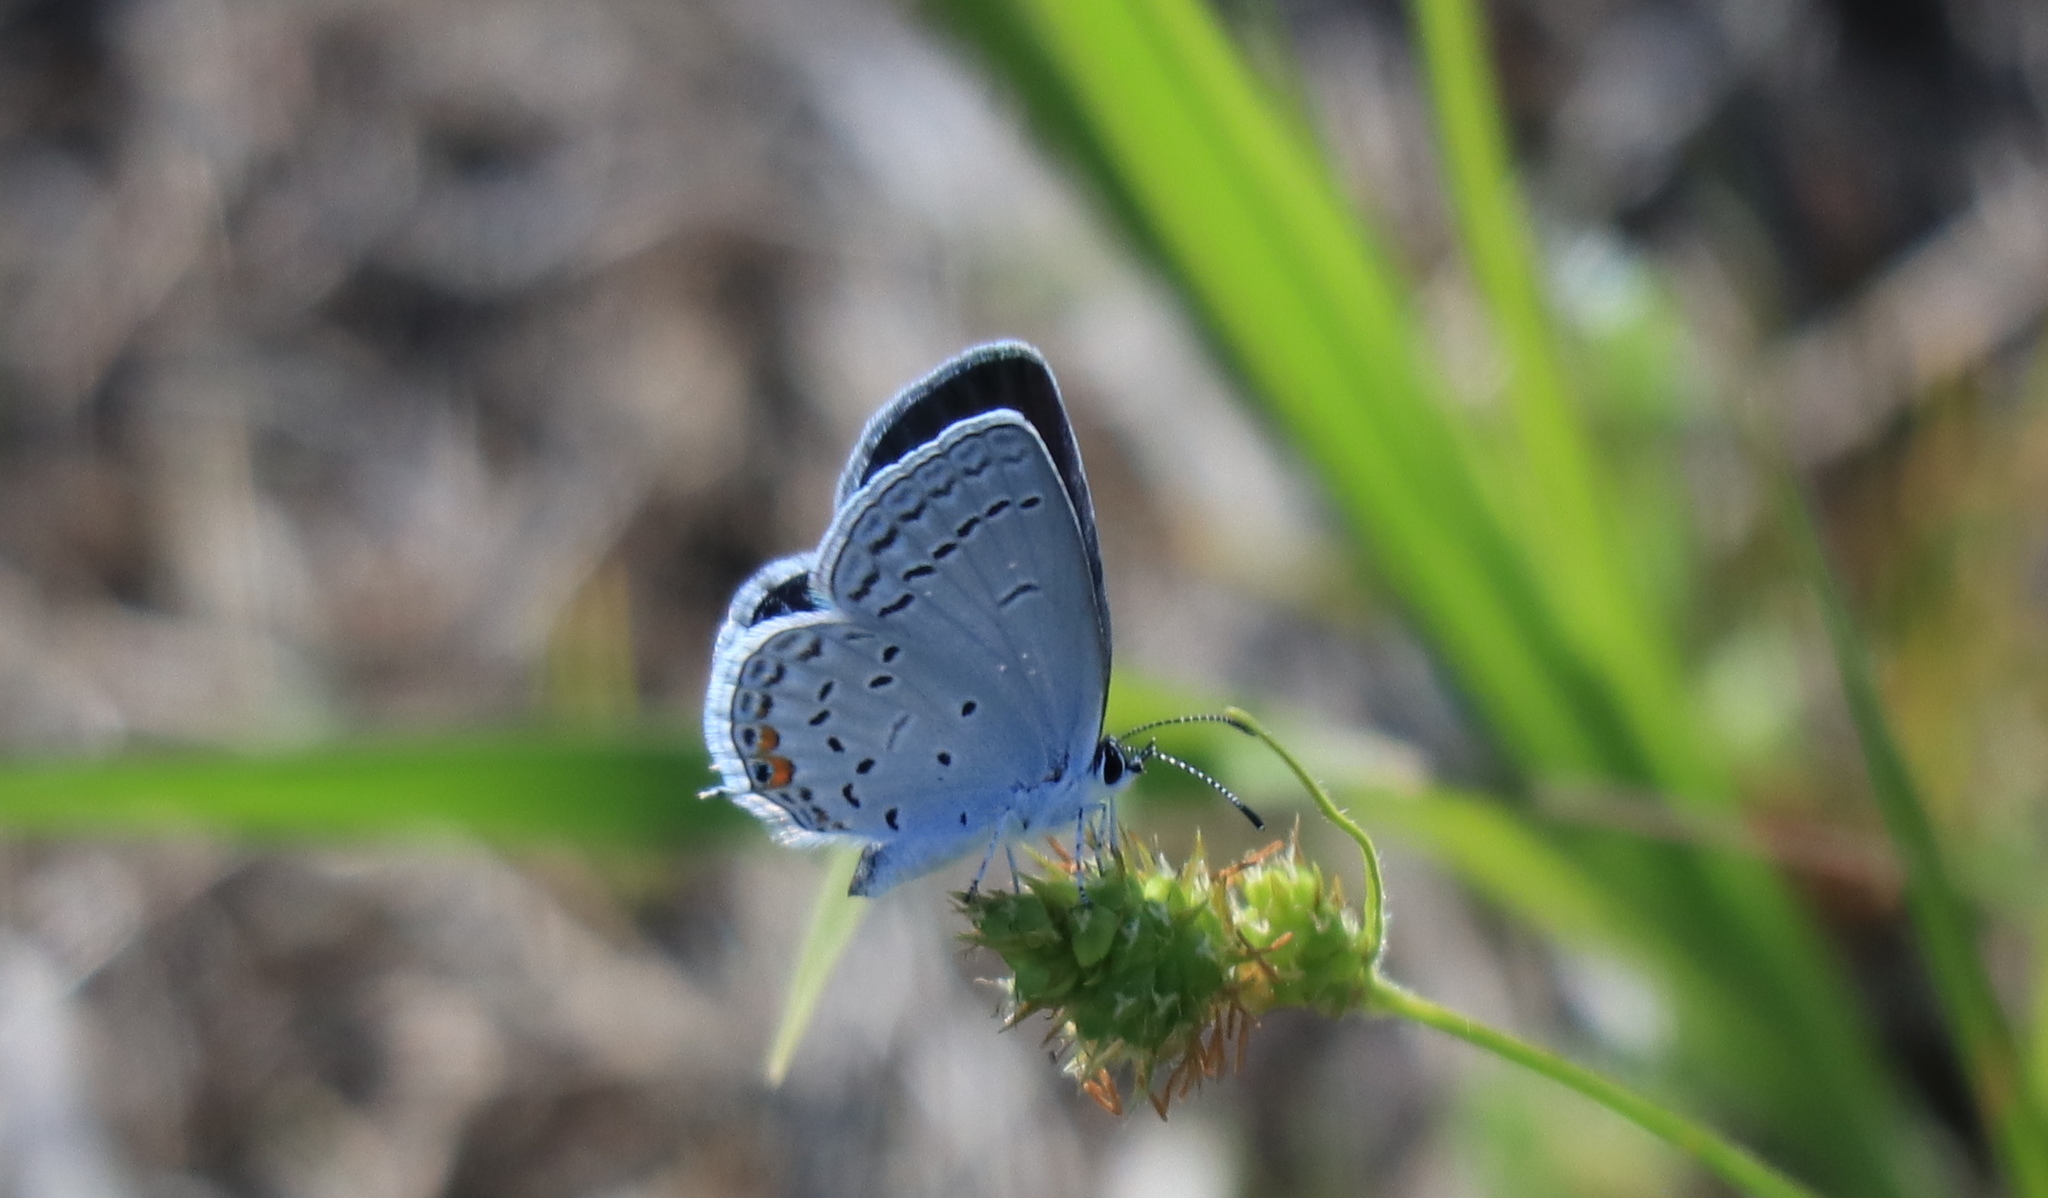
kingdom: Animalia
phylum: Arthropoda
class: Insecta
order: Lepidoptera
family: Lycaenidae
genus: Elkalyce
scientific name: Elkalyce comyntas
